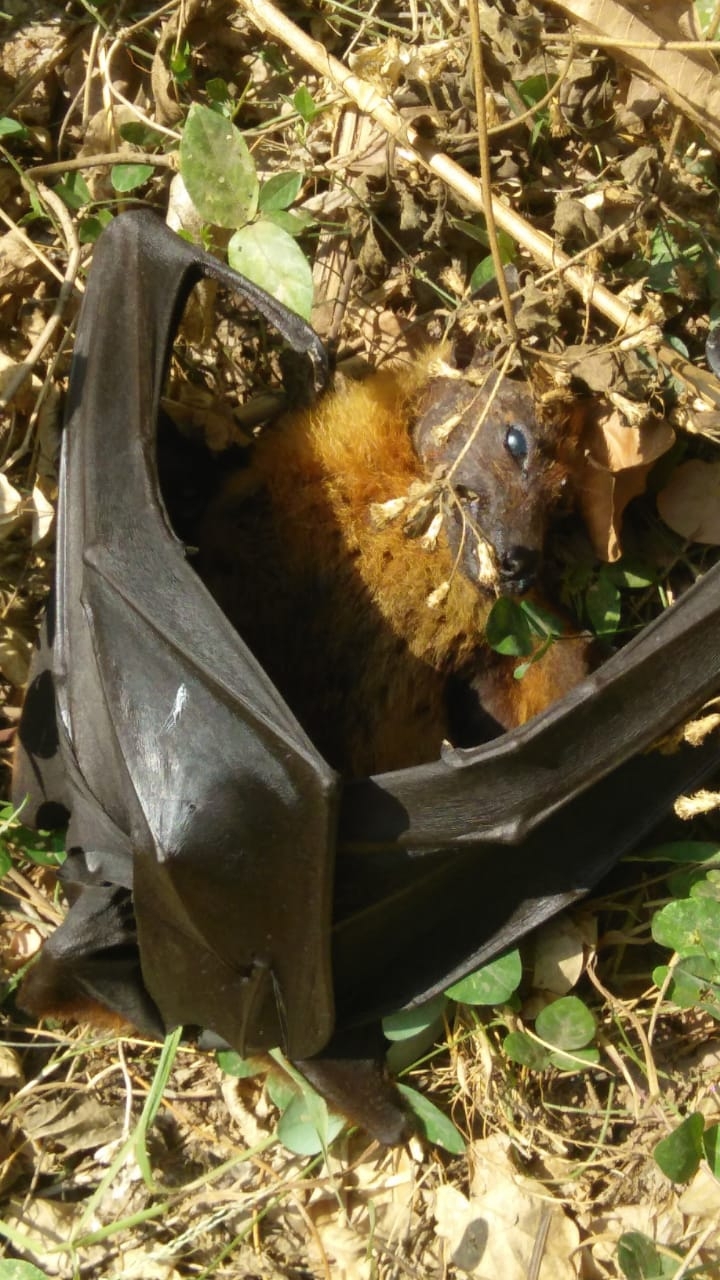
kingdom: Animalia
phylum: Chordata
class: Mammalia
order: Chiroptera
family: Pteropodidae
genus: Pteropus
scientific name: Pteropus vampyrus
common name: Large flying fox
